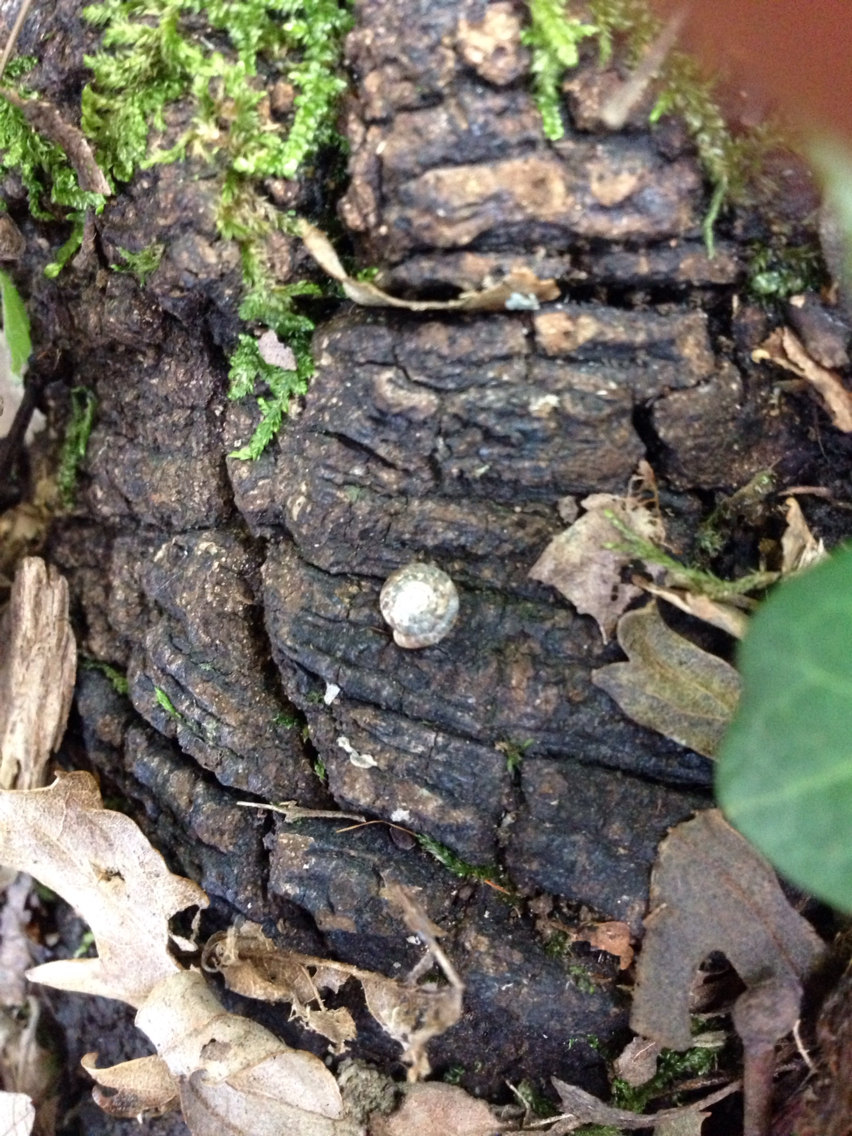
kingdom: Animalia
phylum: Mollusca
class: Gastropoda
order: Stylommatophora
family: Discidae
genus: Discus
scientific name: Discus rotundatus
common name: Rounded snail
